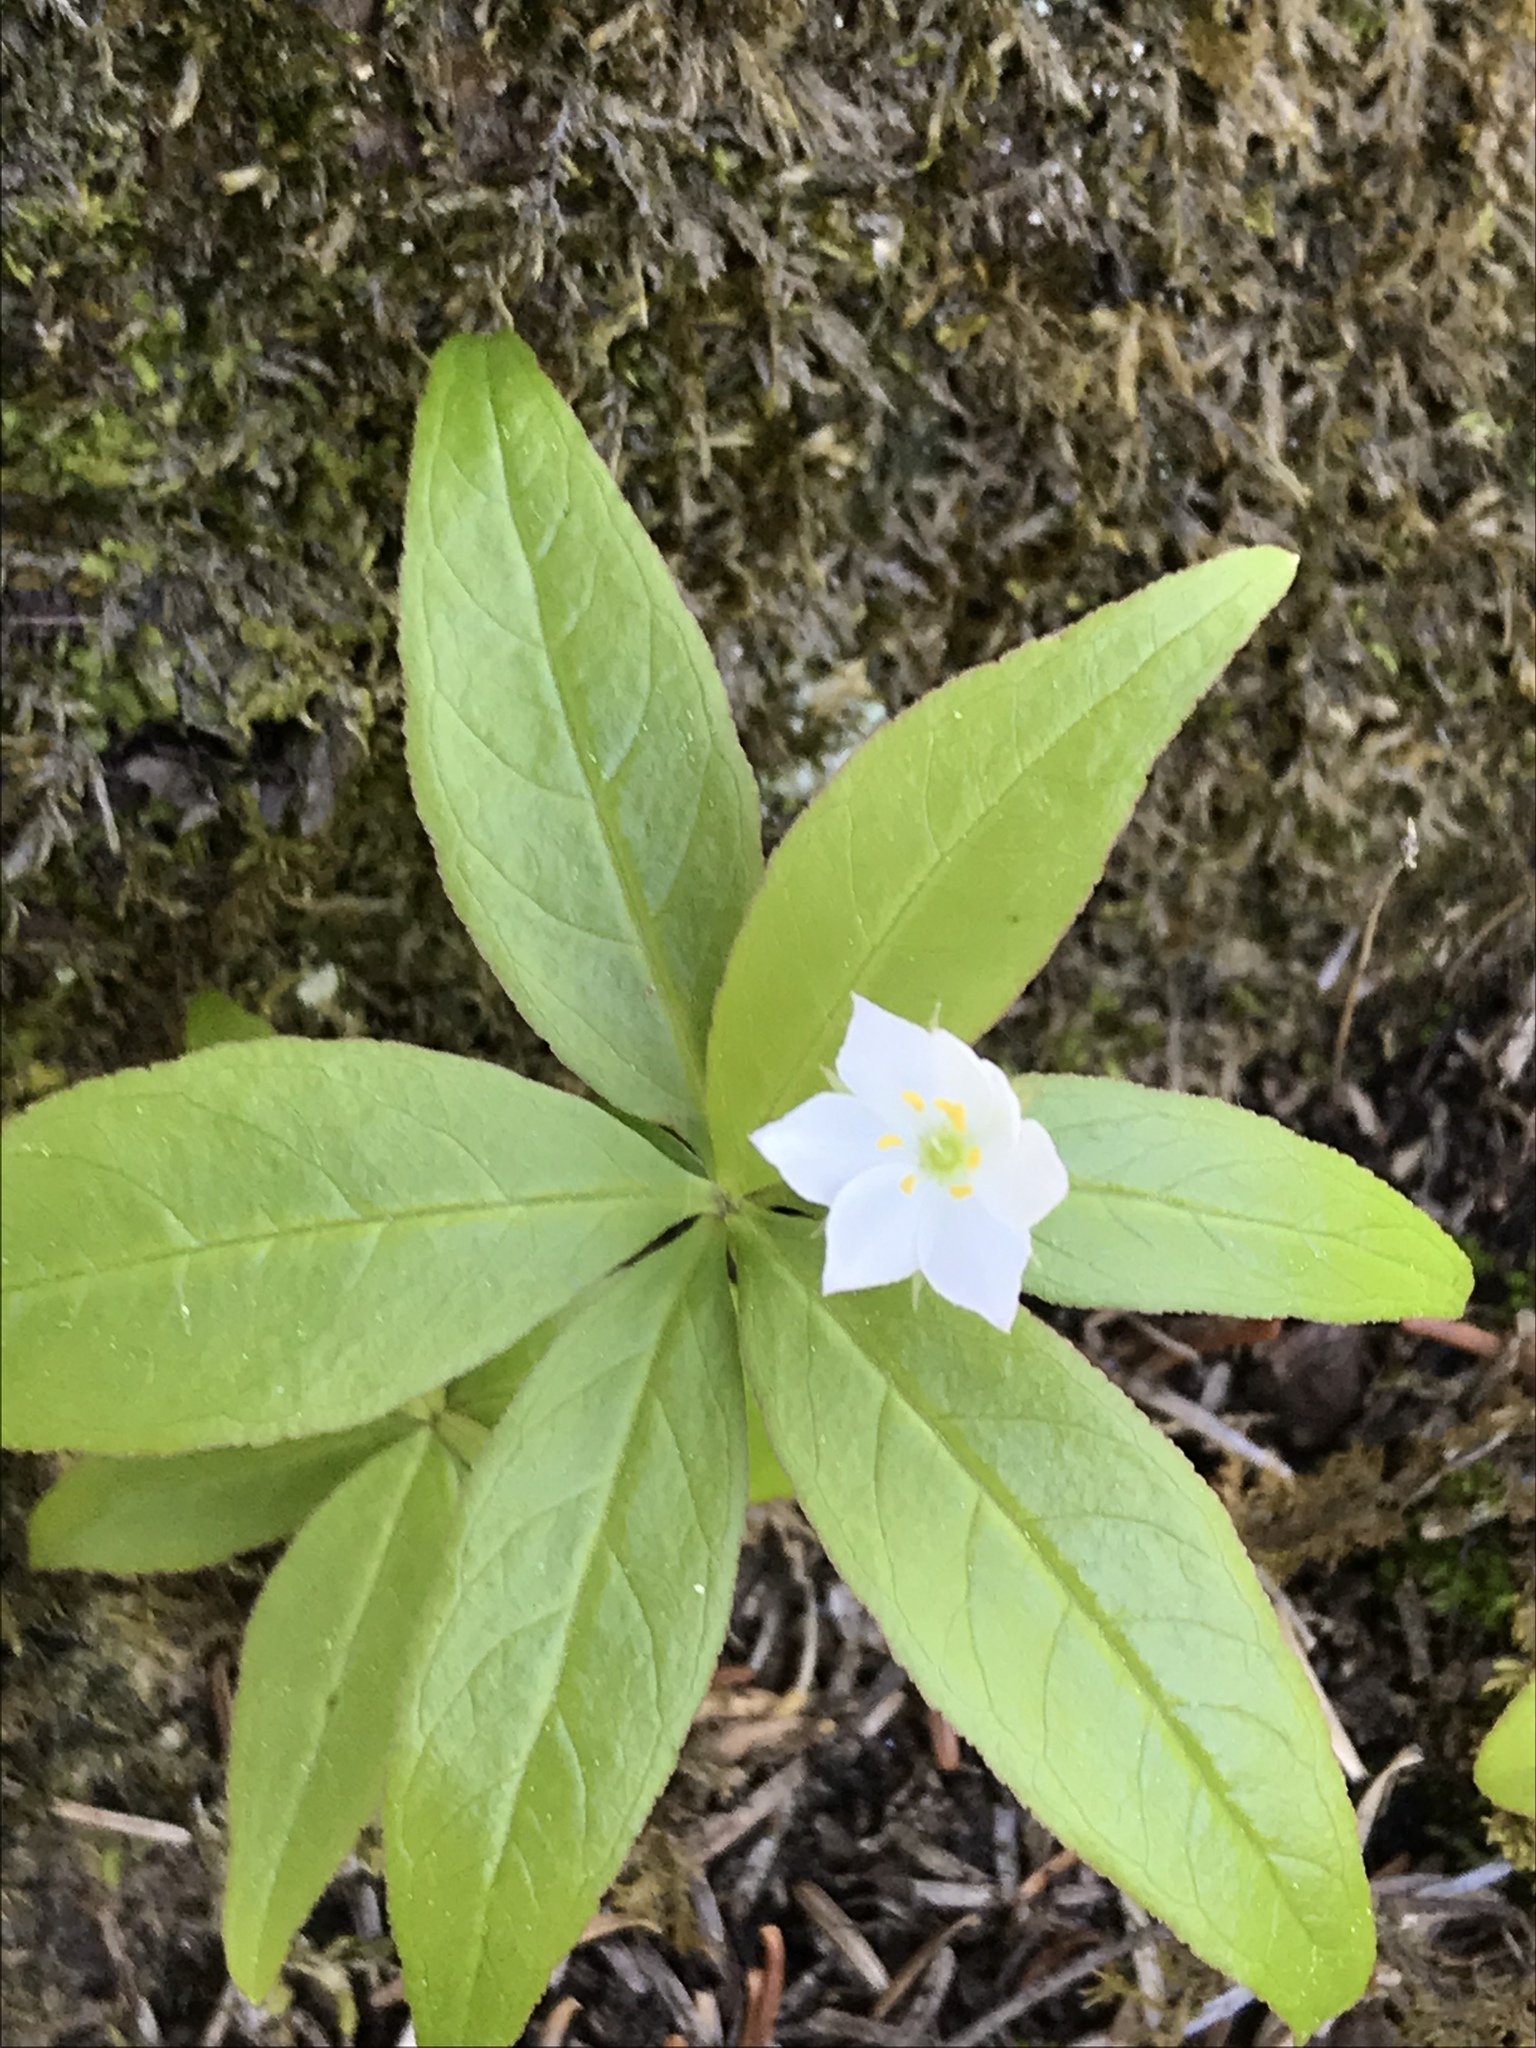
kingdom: Plantae
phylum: Tracheophyta
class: Magnoliopsida
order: Ericales
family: Primulaceae
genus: Lysimachia
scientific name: Lysimachia borealis
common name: American starflower
